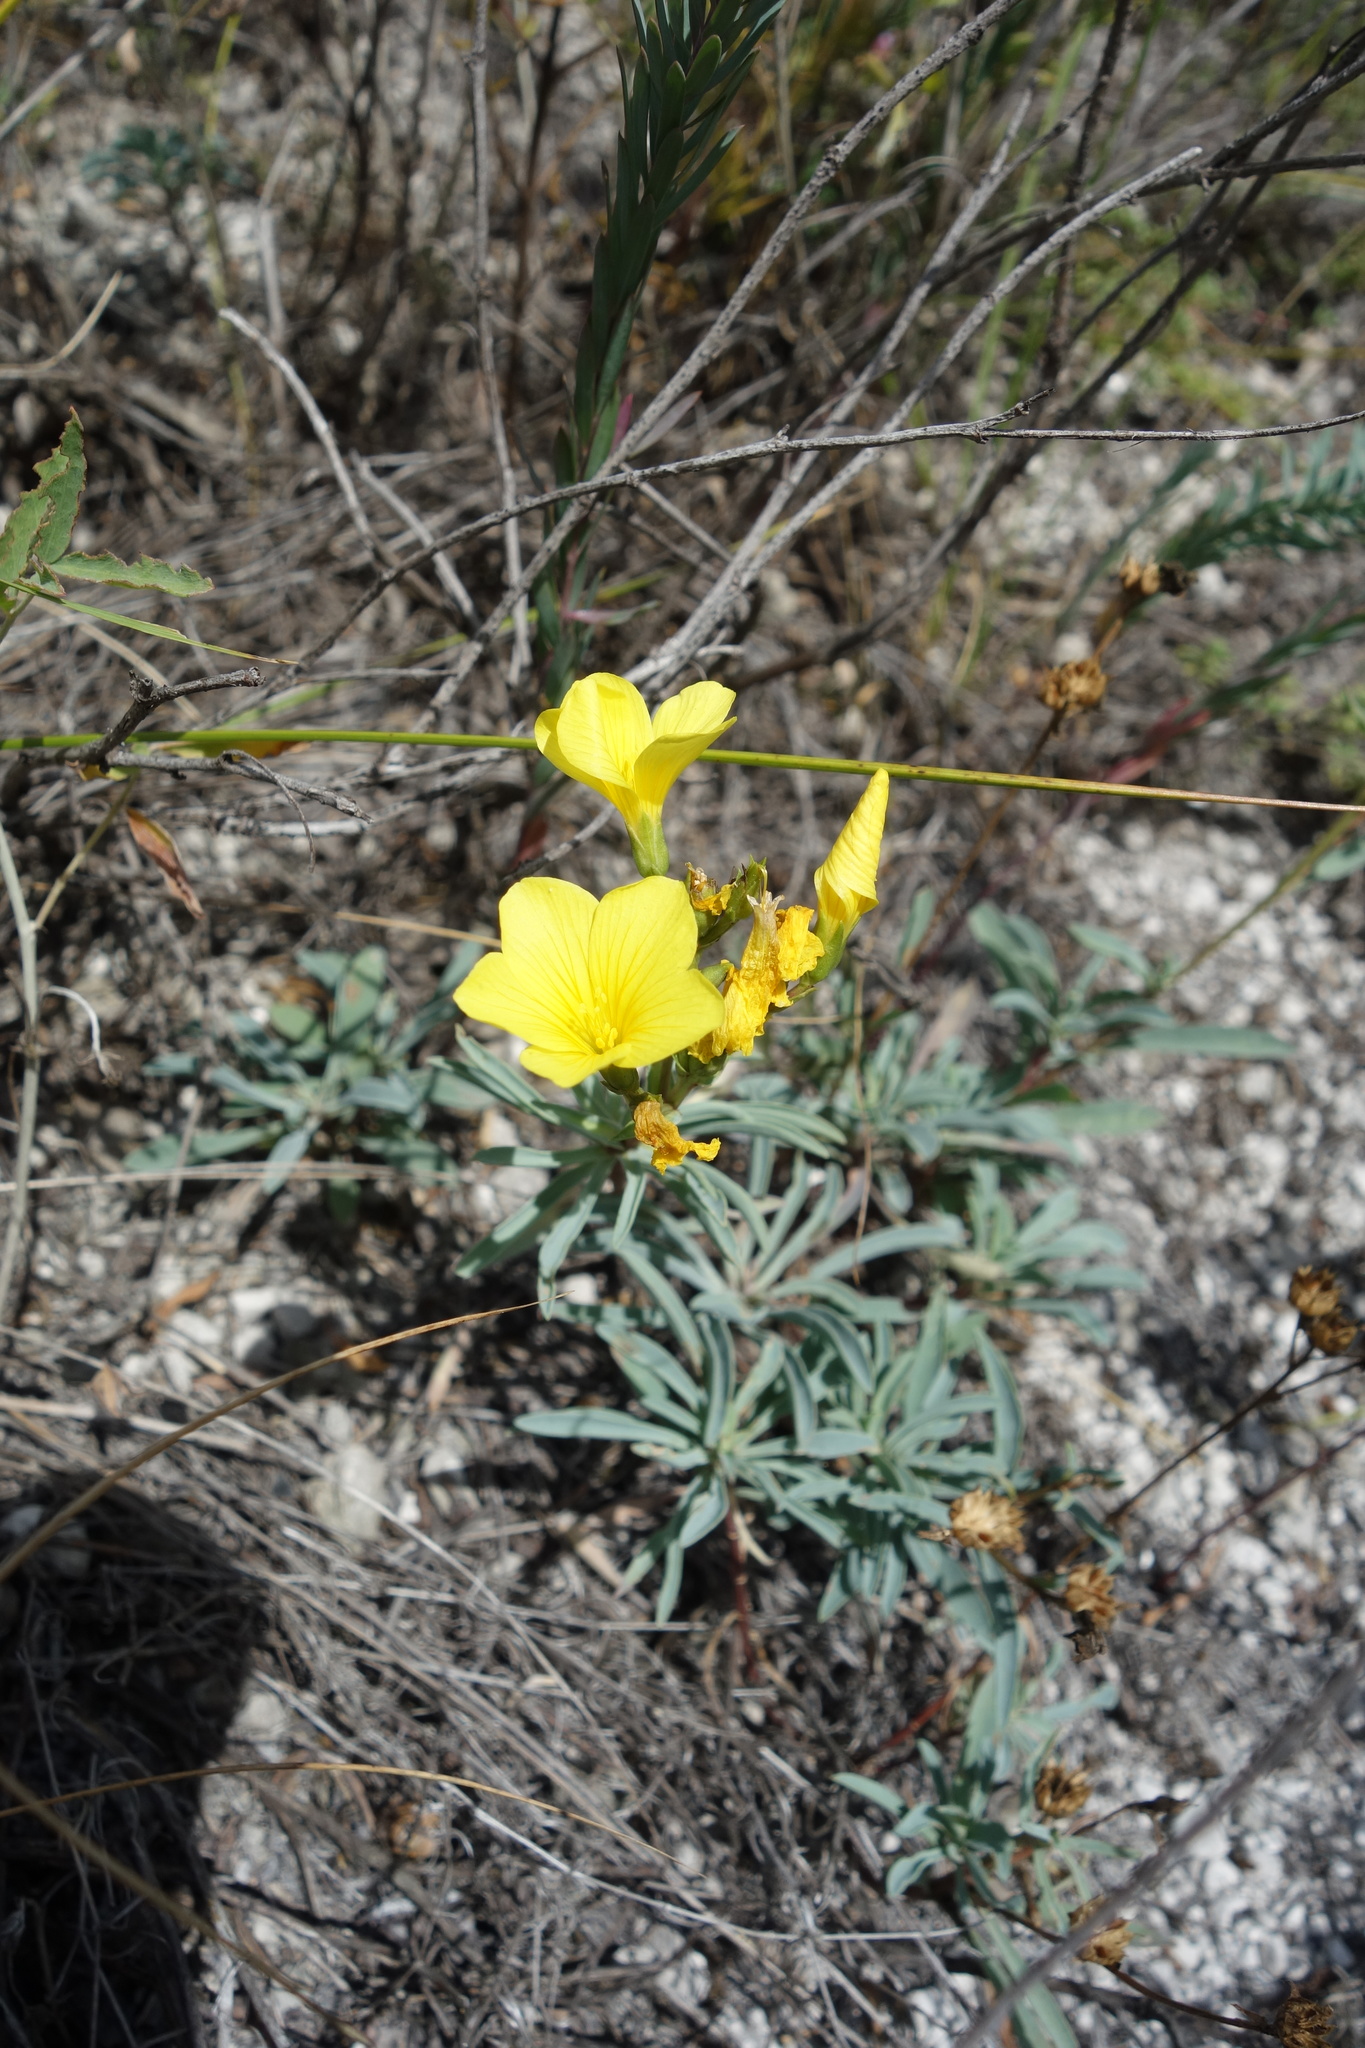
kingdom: Plantae
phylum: Tracheophyta
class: Magnoliopsida
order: Malpighiales
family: Linaceae
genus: Linum
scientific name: Linum ucranicum
